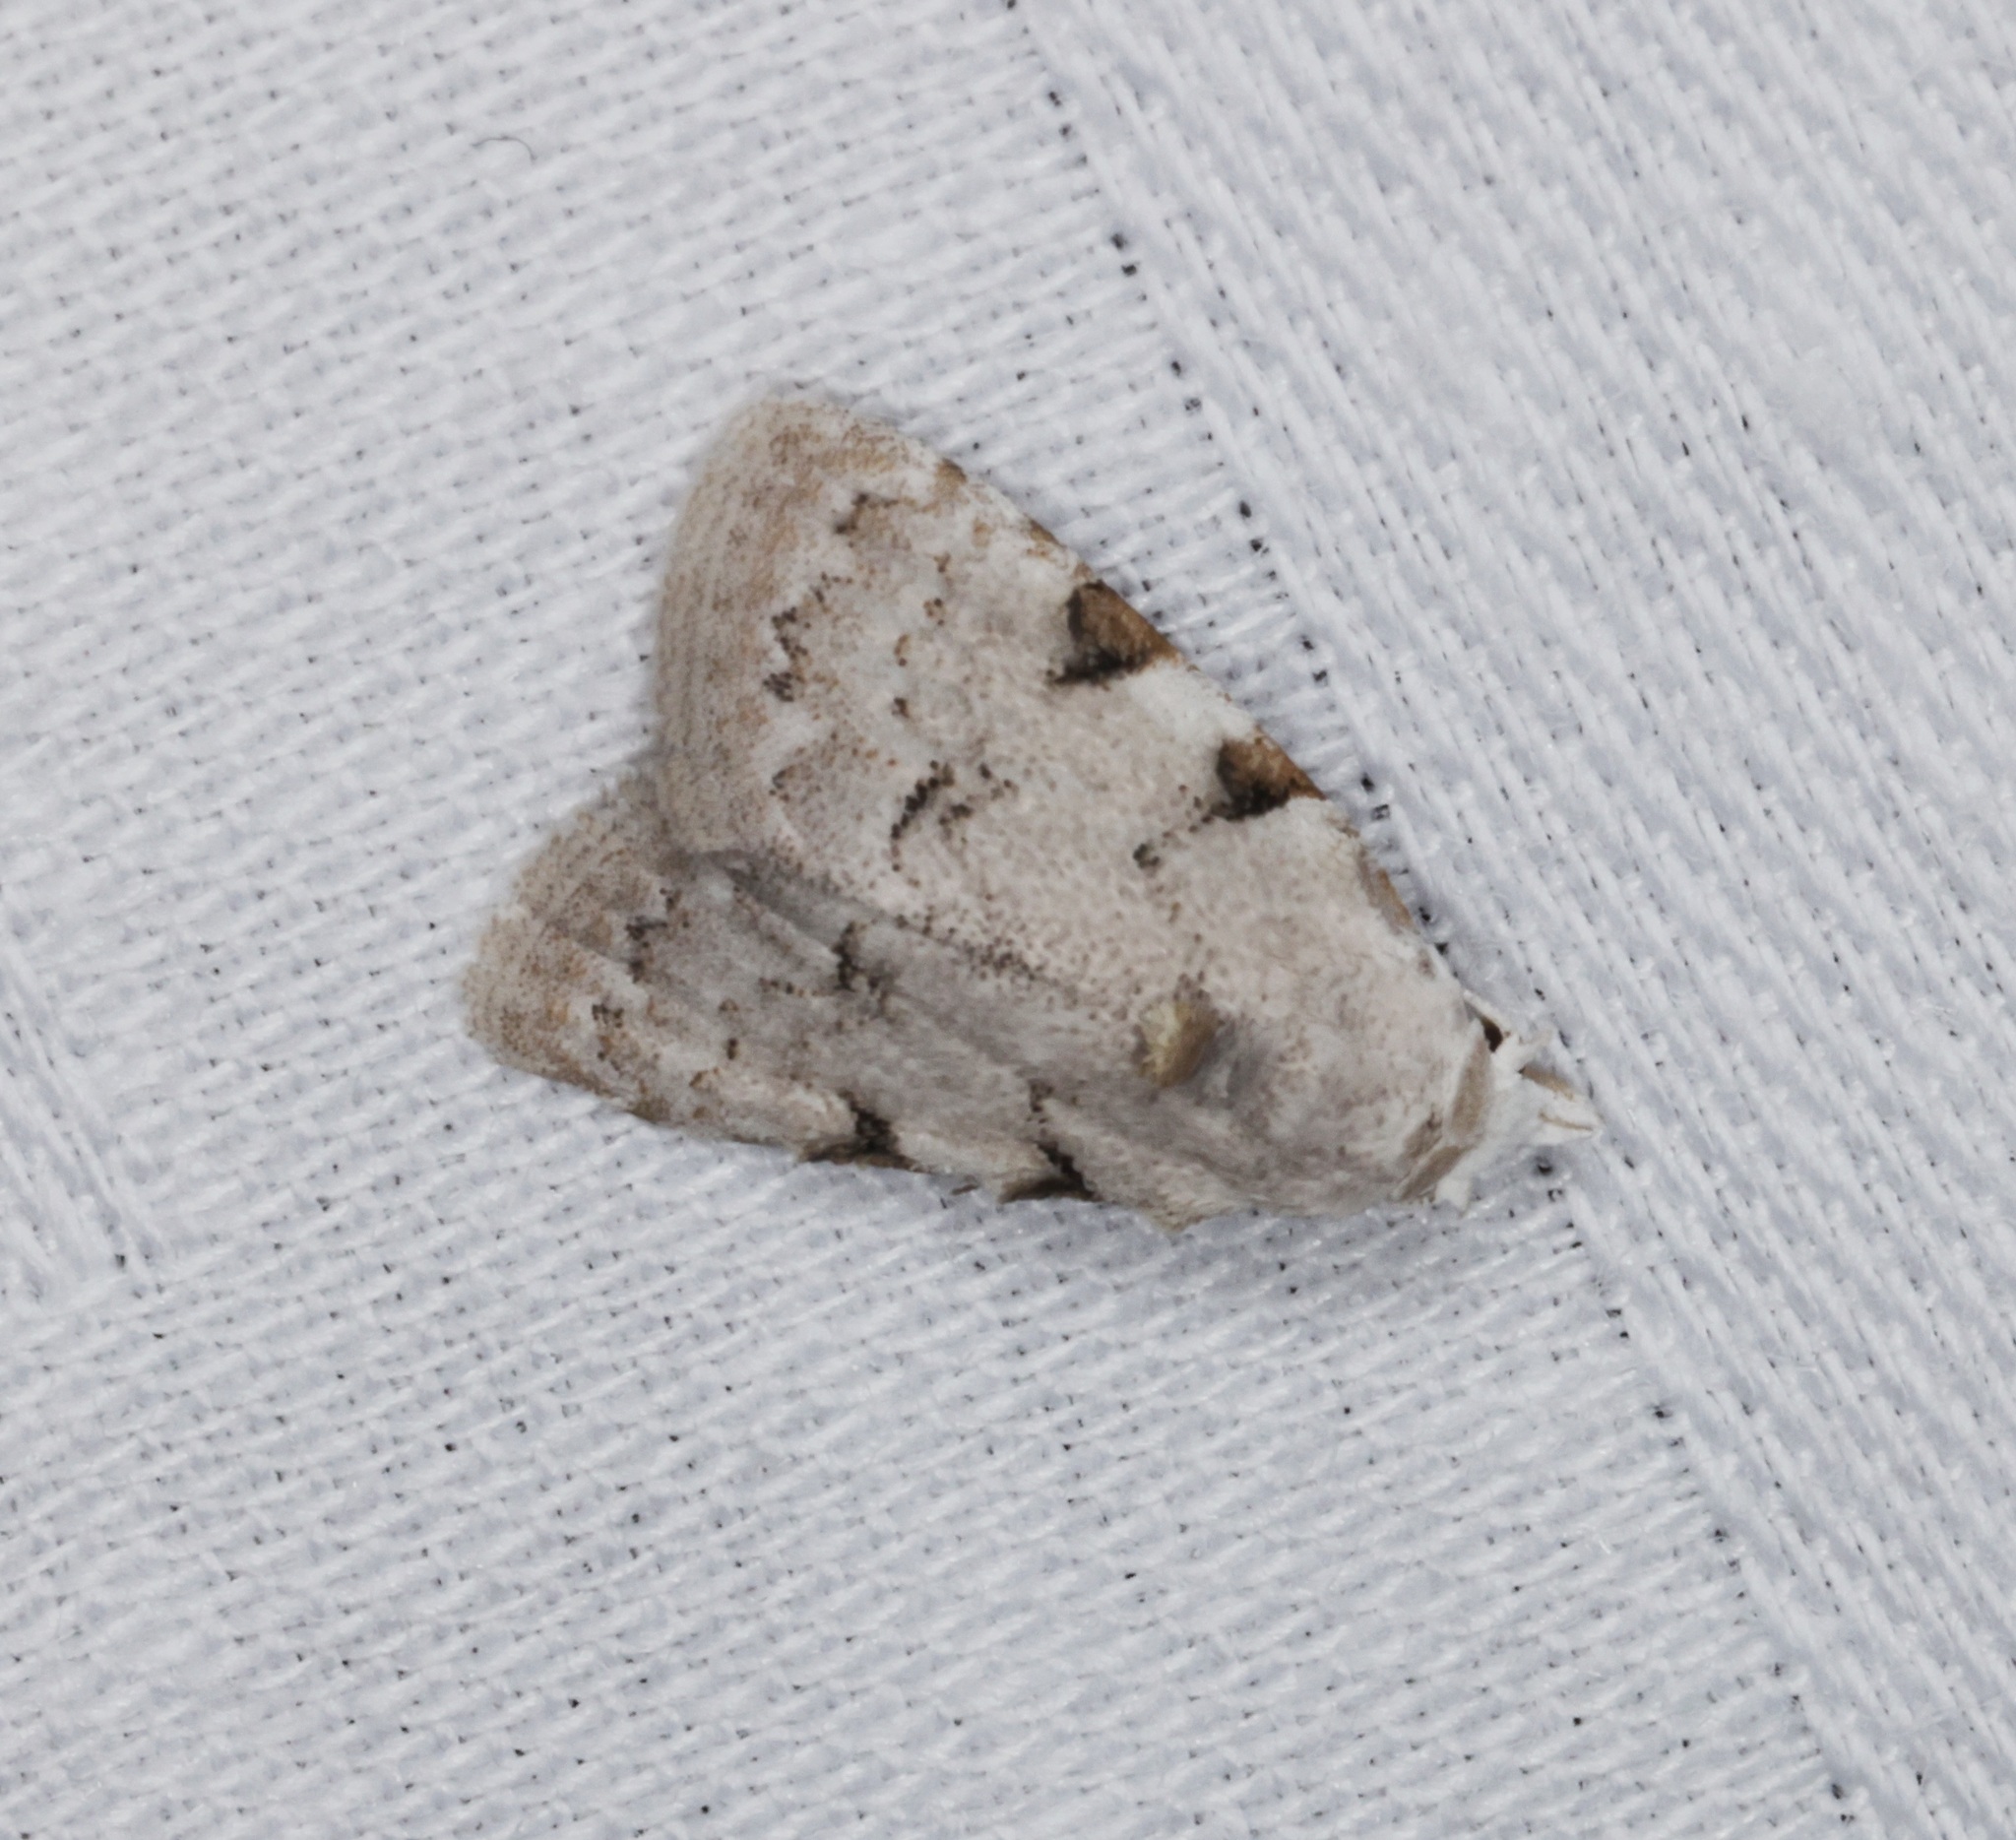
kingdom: Animalia
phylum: Arthropoda
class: Insecta
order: Lepidoptera
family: Nolidae
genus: Nola
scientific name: Nola pascua
